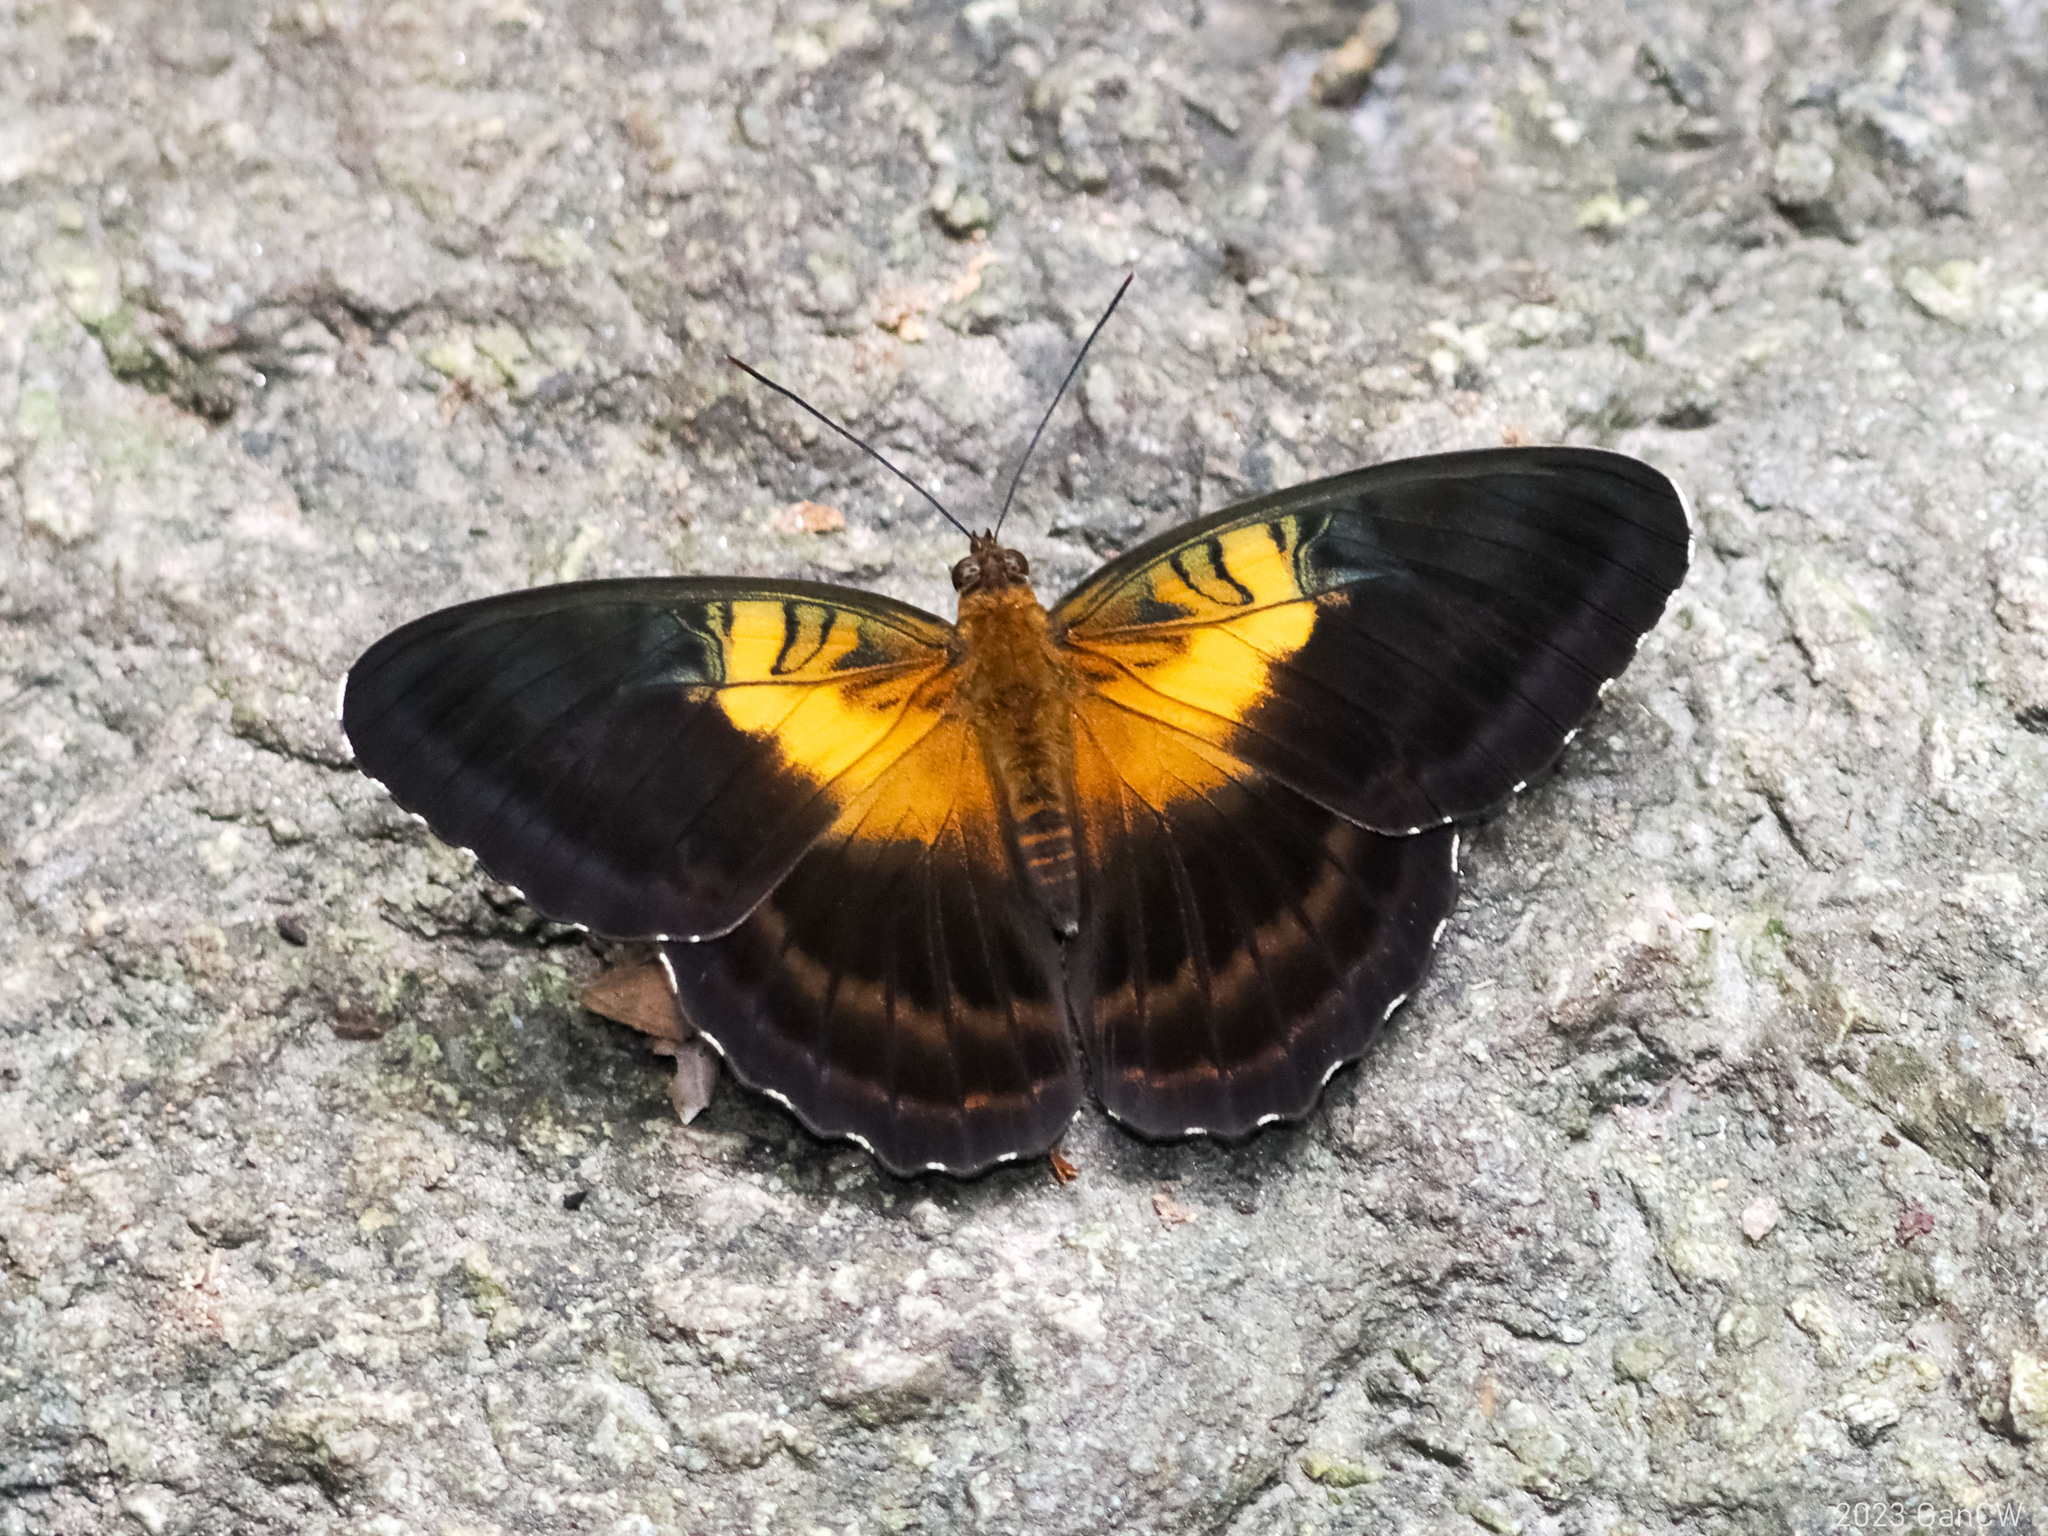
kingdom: Animalia
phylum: Arthropoda
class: Insecta
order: Lepidoptera
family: Nymphalidae
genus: Parthenos
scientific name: Parthenos aspila
